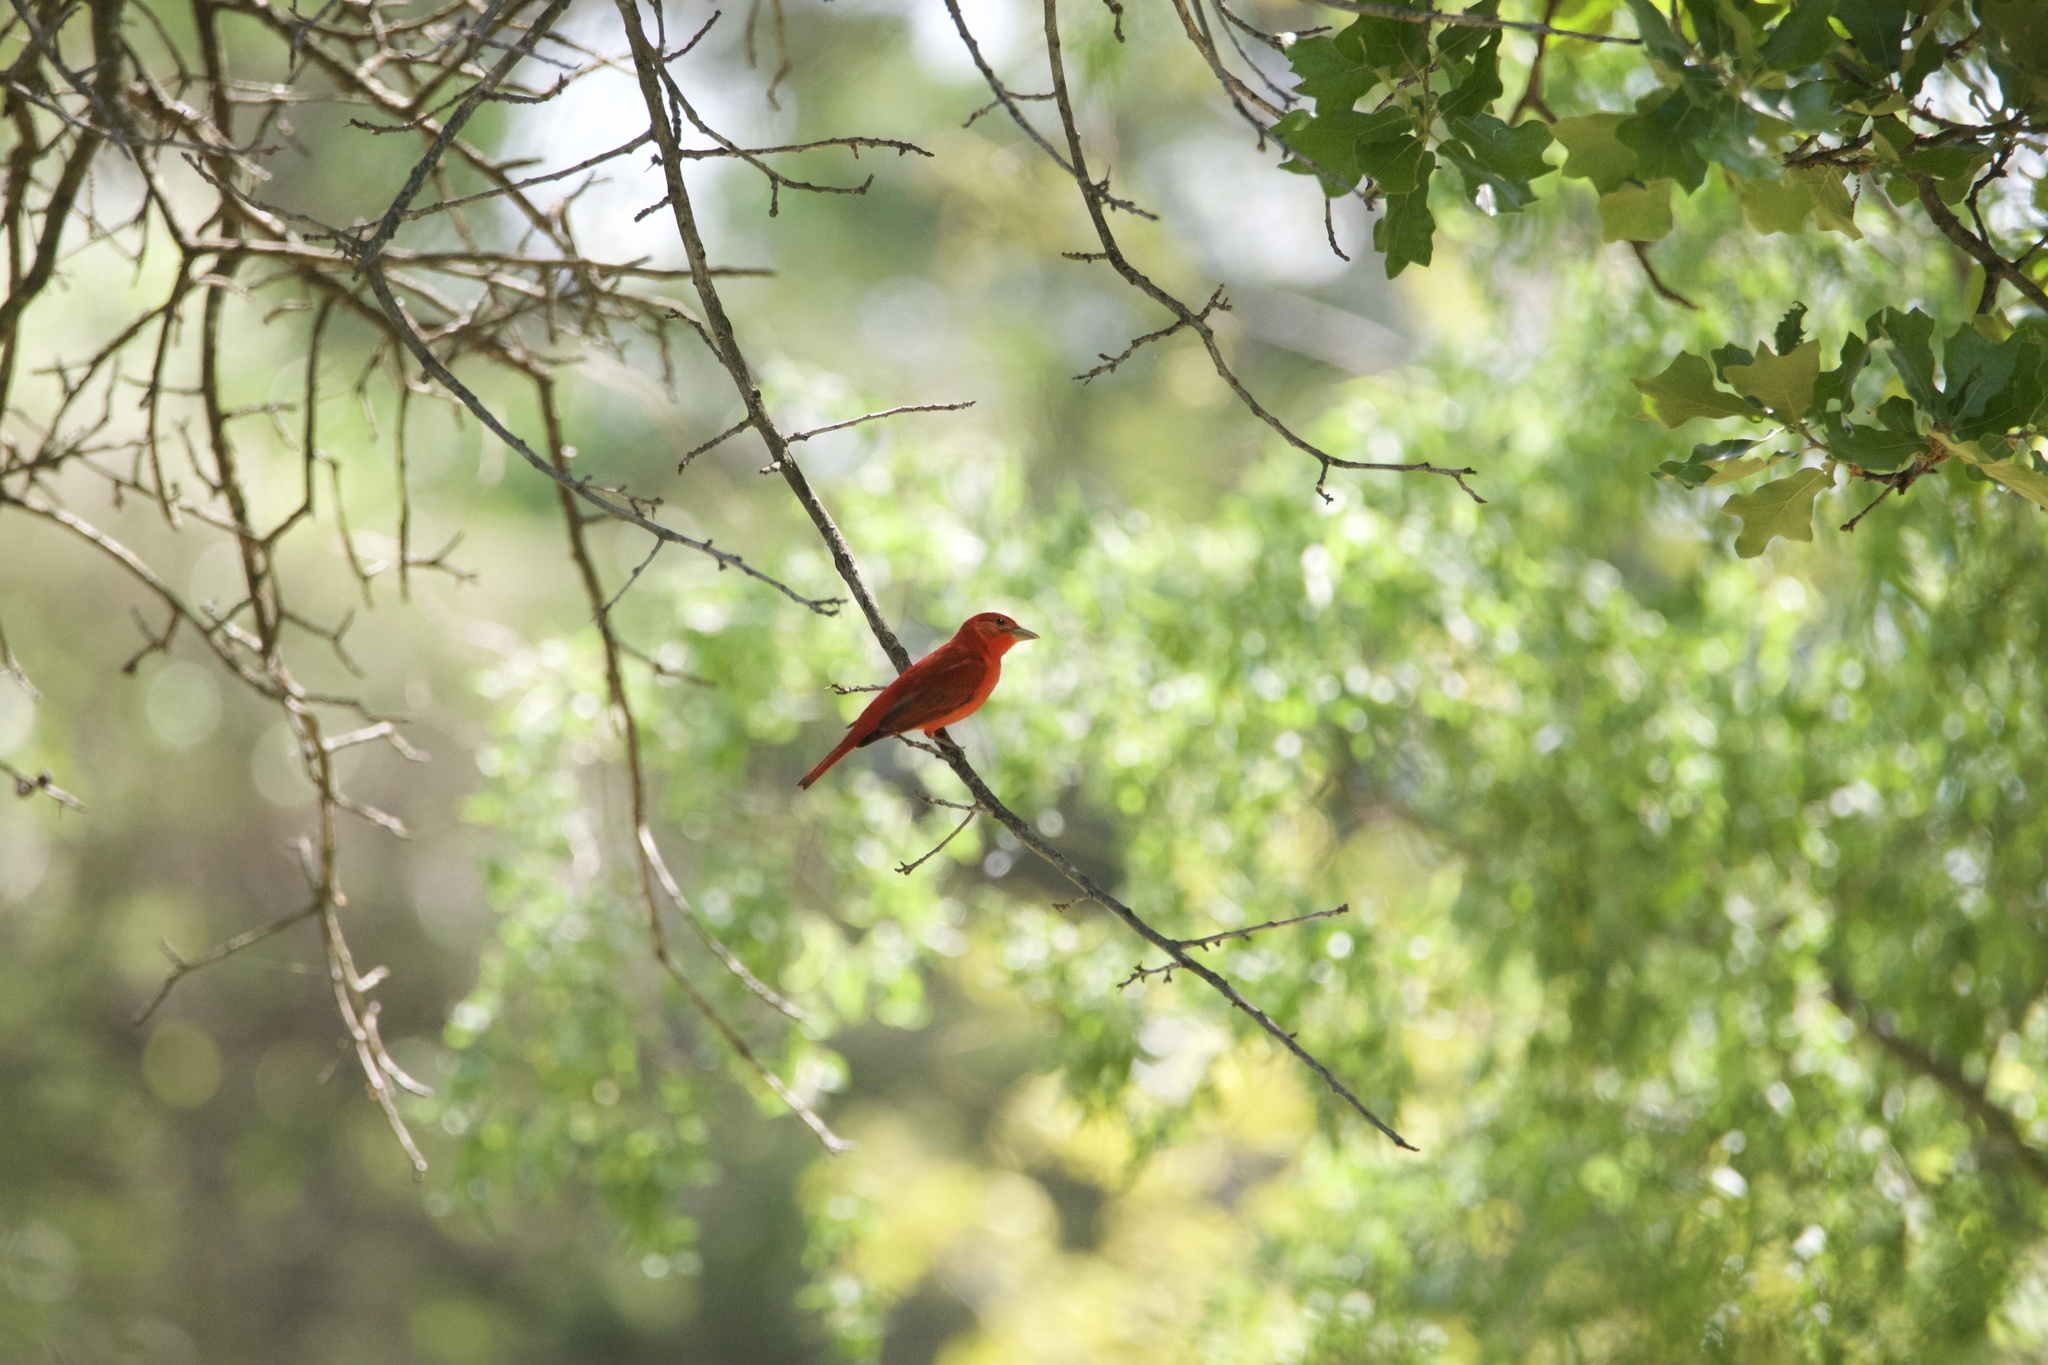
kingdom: Animalia
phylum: Chordata
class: Aves
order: Passeriformes
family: Cardinalidae
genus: Piranga
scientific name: Piranga rubra
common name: Summer tanager
